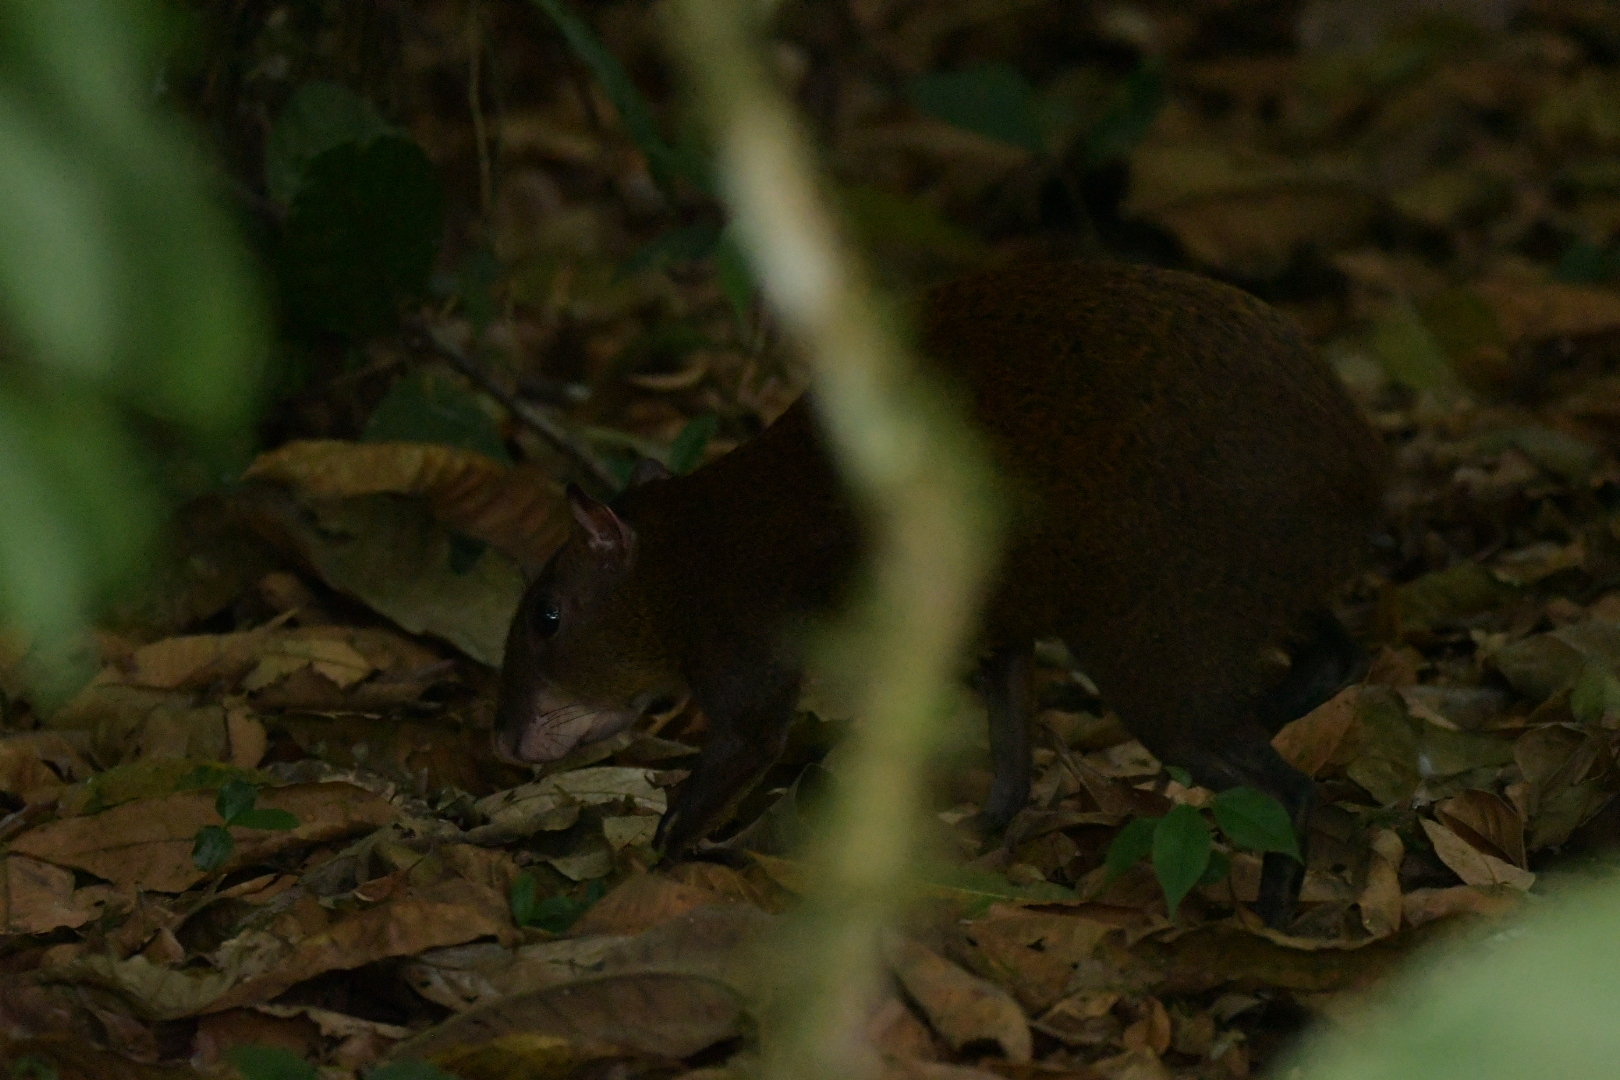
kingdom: Animalia
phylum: Chordata
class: Mammalia
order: Rodentia
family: Dasyproctidae
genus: Dasyprocta
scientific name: Dasyprocta punctata
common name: Central american agouti
